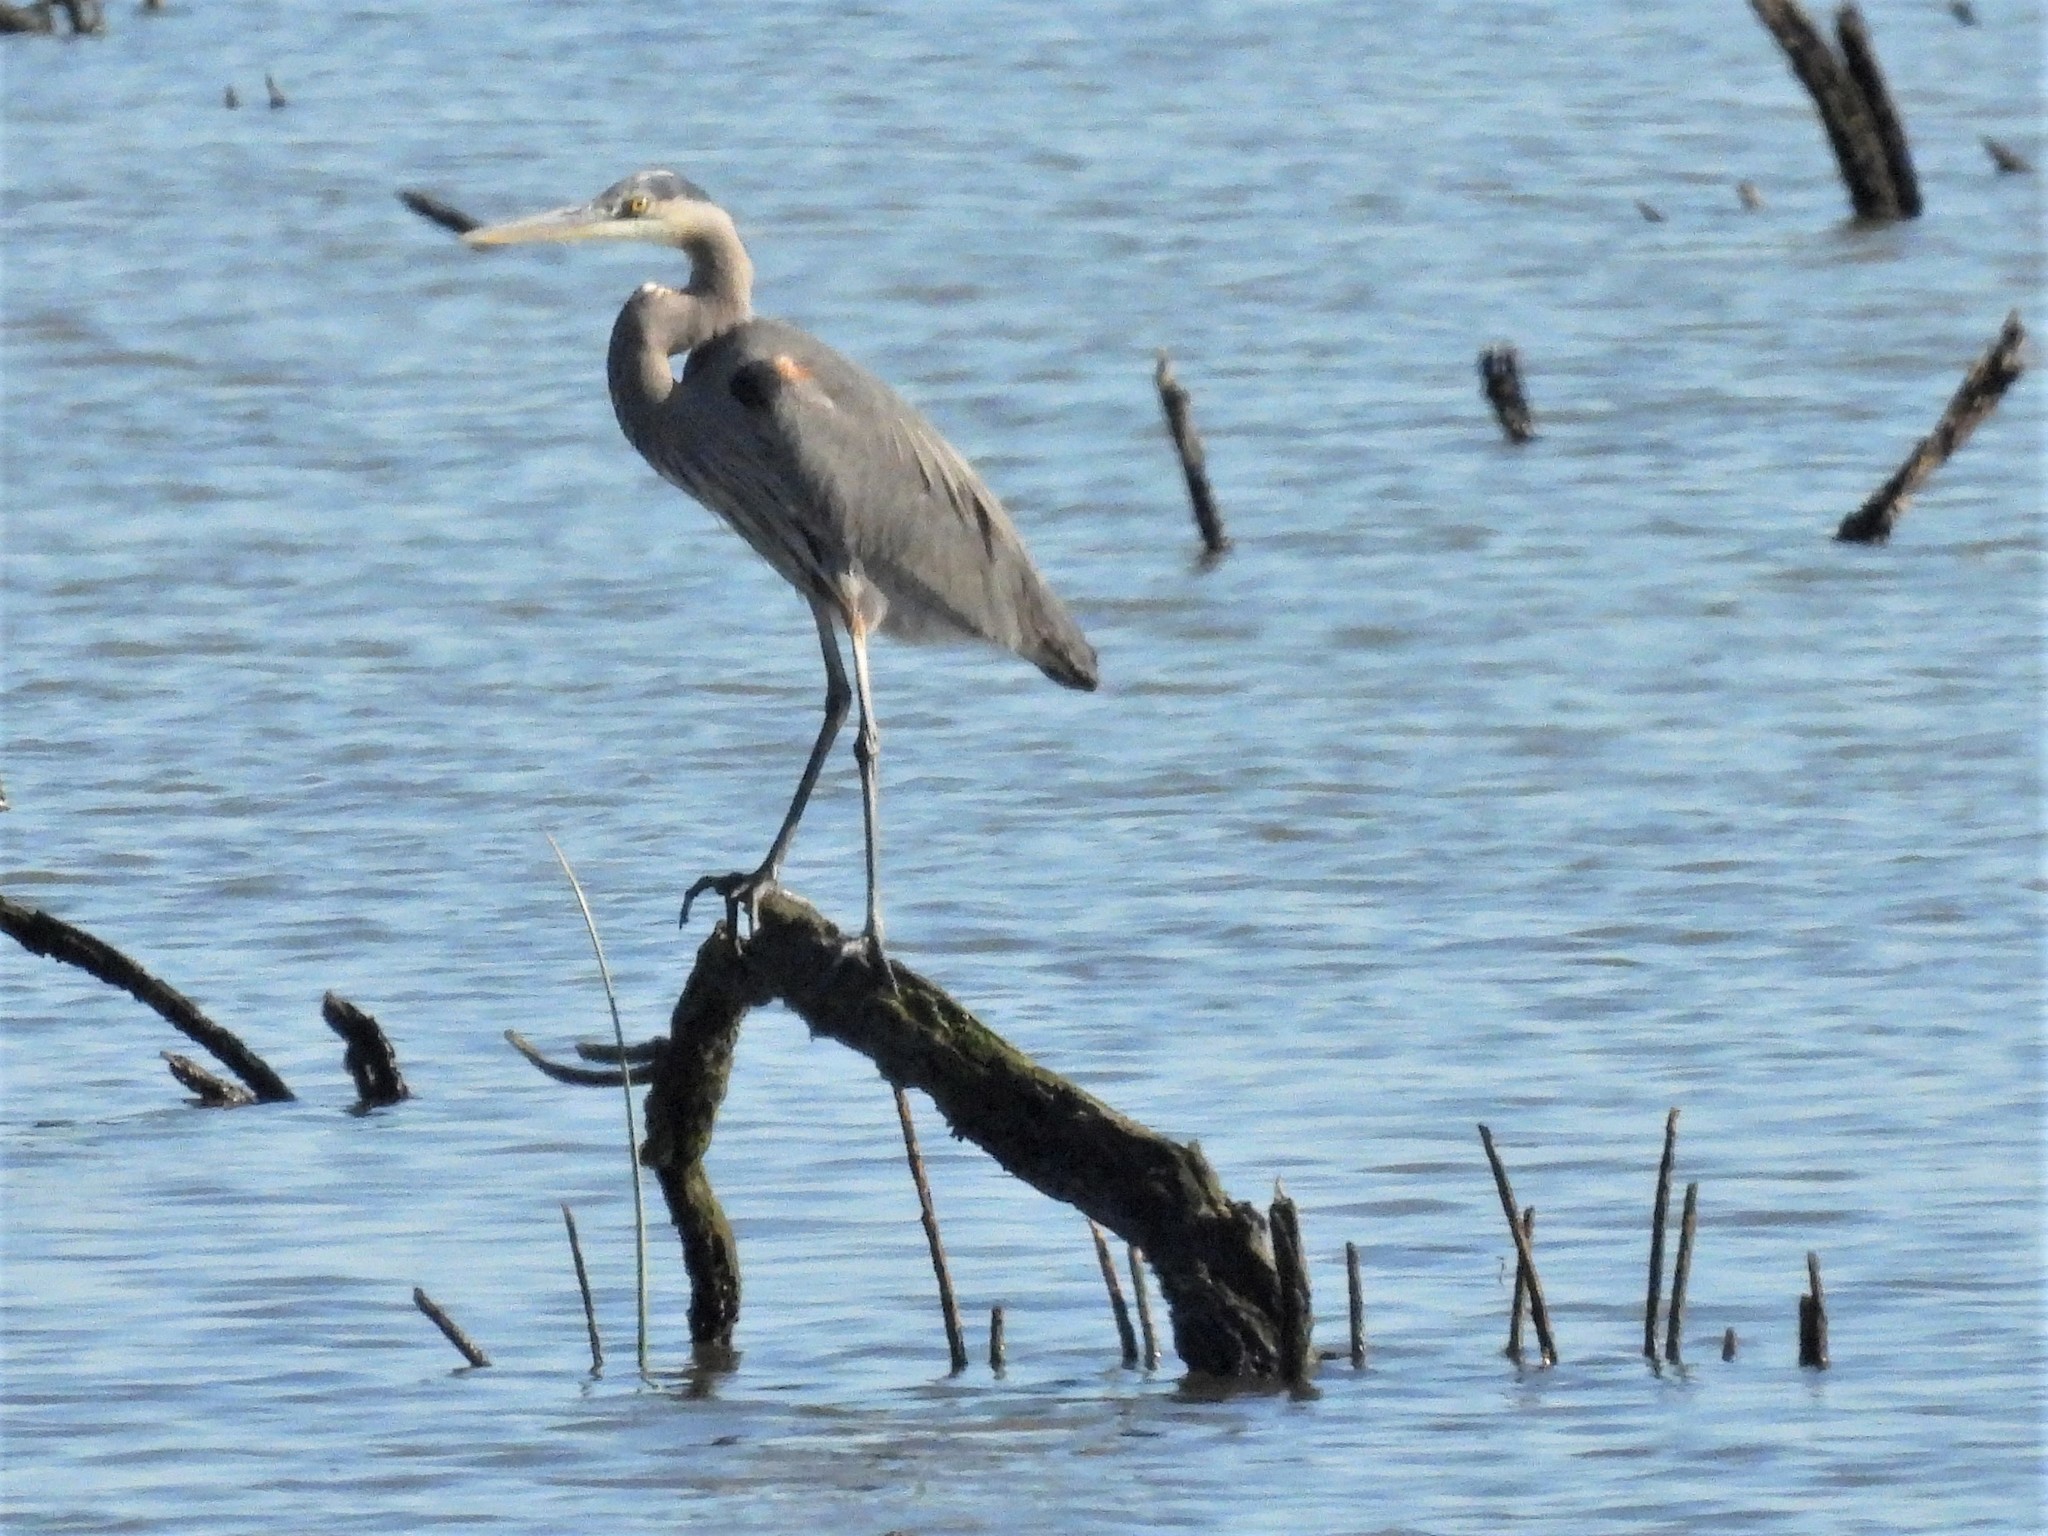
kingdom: Animalia
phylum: Chordata
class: Aves
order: Pelecaniformes
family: Ardeidae
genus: Ardea
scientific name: Ardea herodias
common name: Great blue heron
